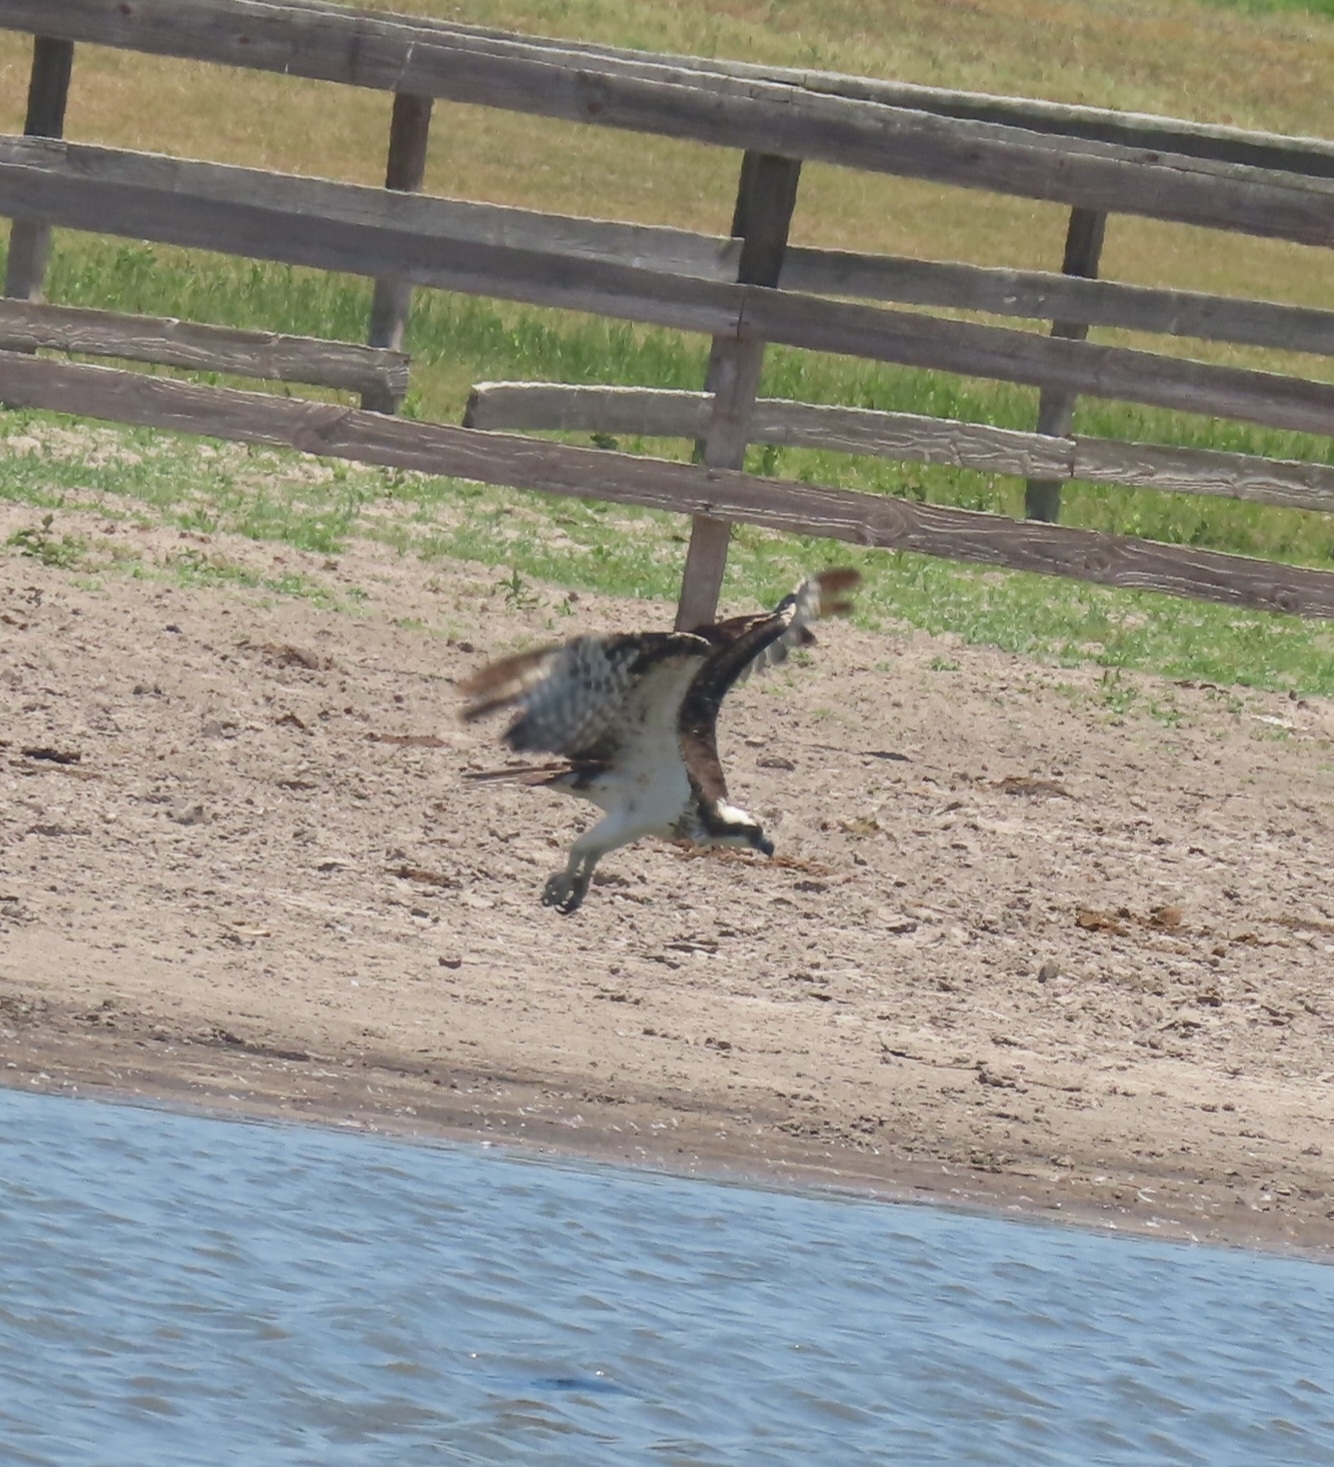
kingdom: Animalia
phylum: Chordata
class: Aves
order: Accipitriformes
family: Pandionidae
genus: Pandion
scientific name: Pandion haliaetus
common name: Osprey
